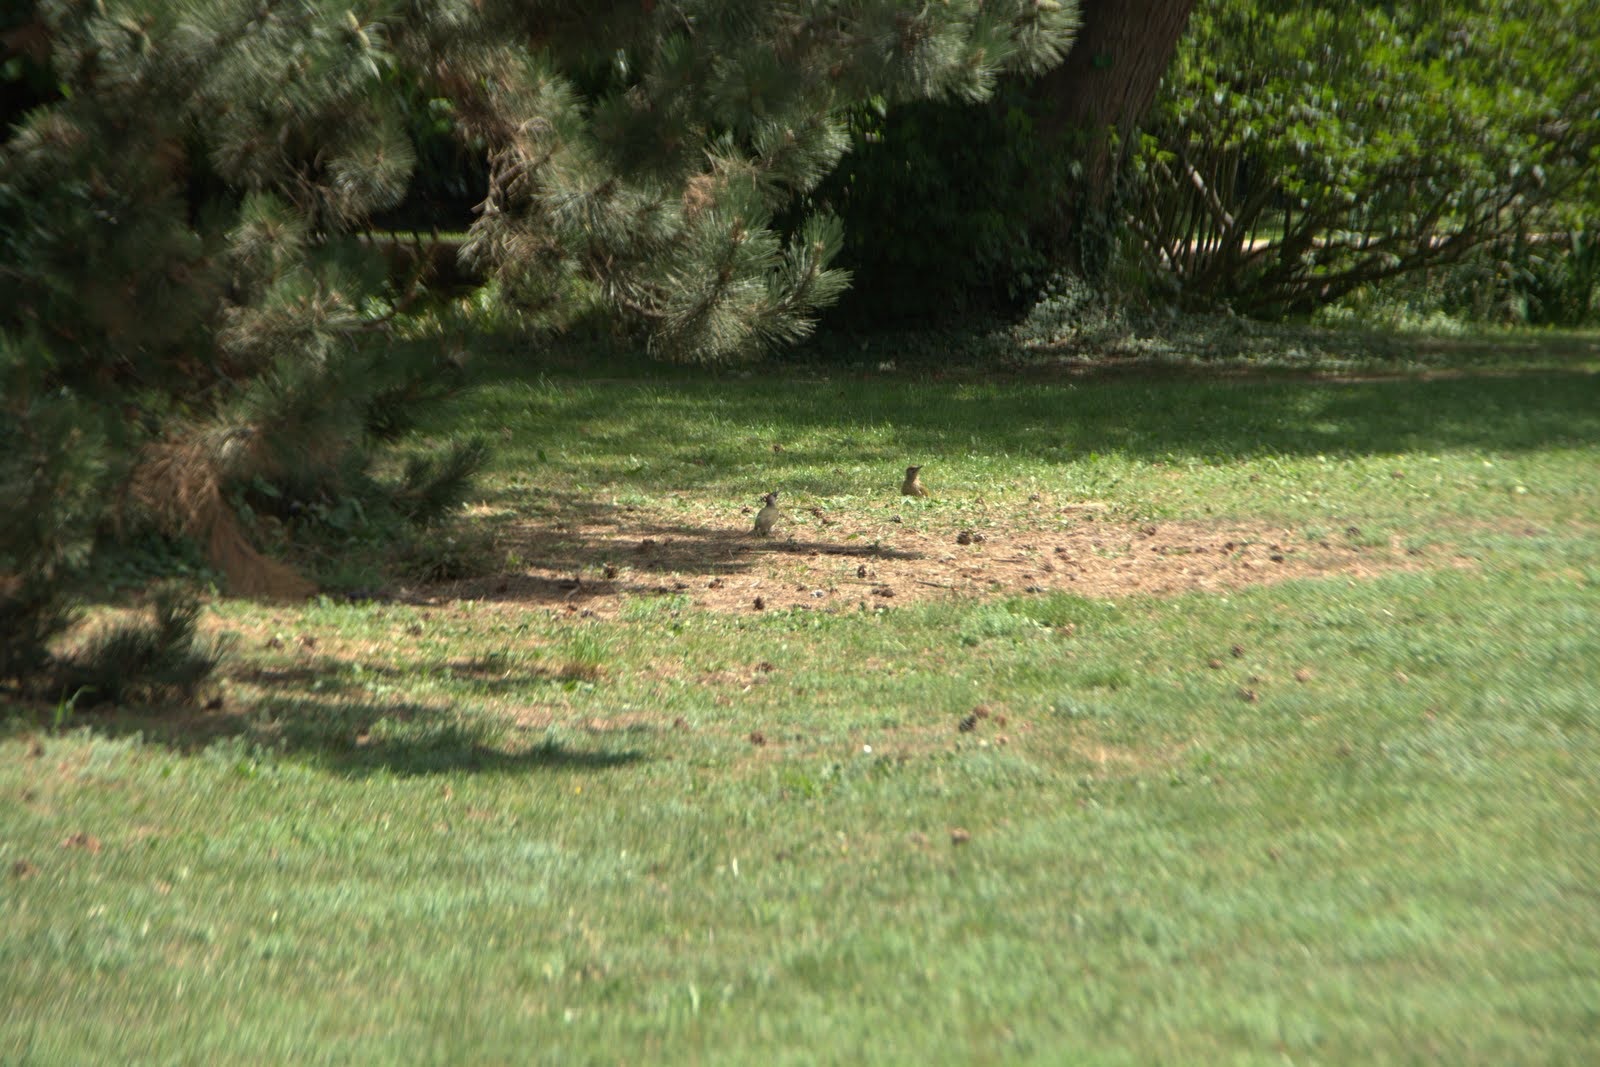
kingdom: Animalia
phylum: Chordata
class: Aves
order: Piciformes
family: Picidae
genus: Picus
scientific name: Picus viridis
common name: European green woodpecker
